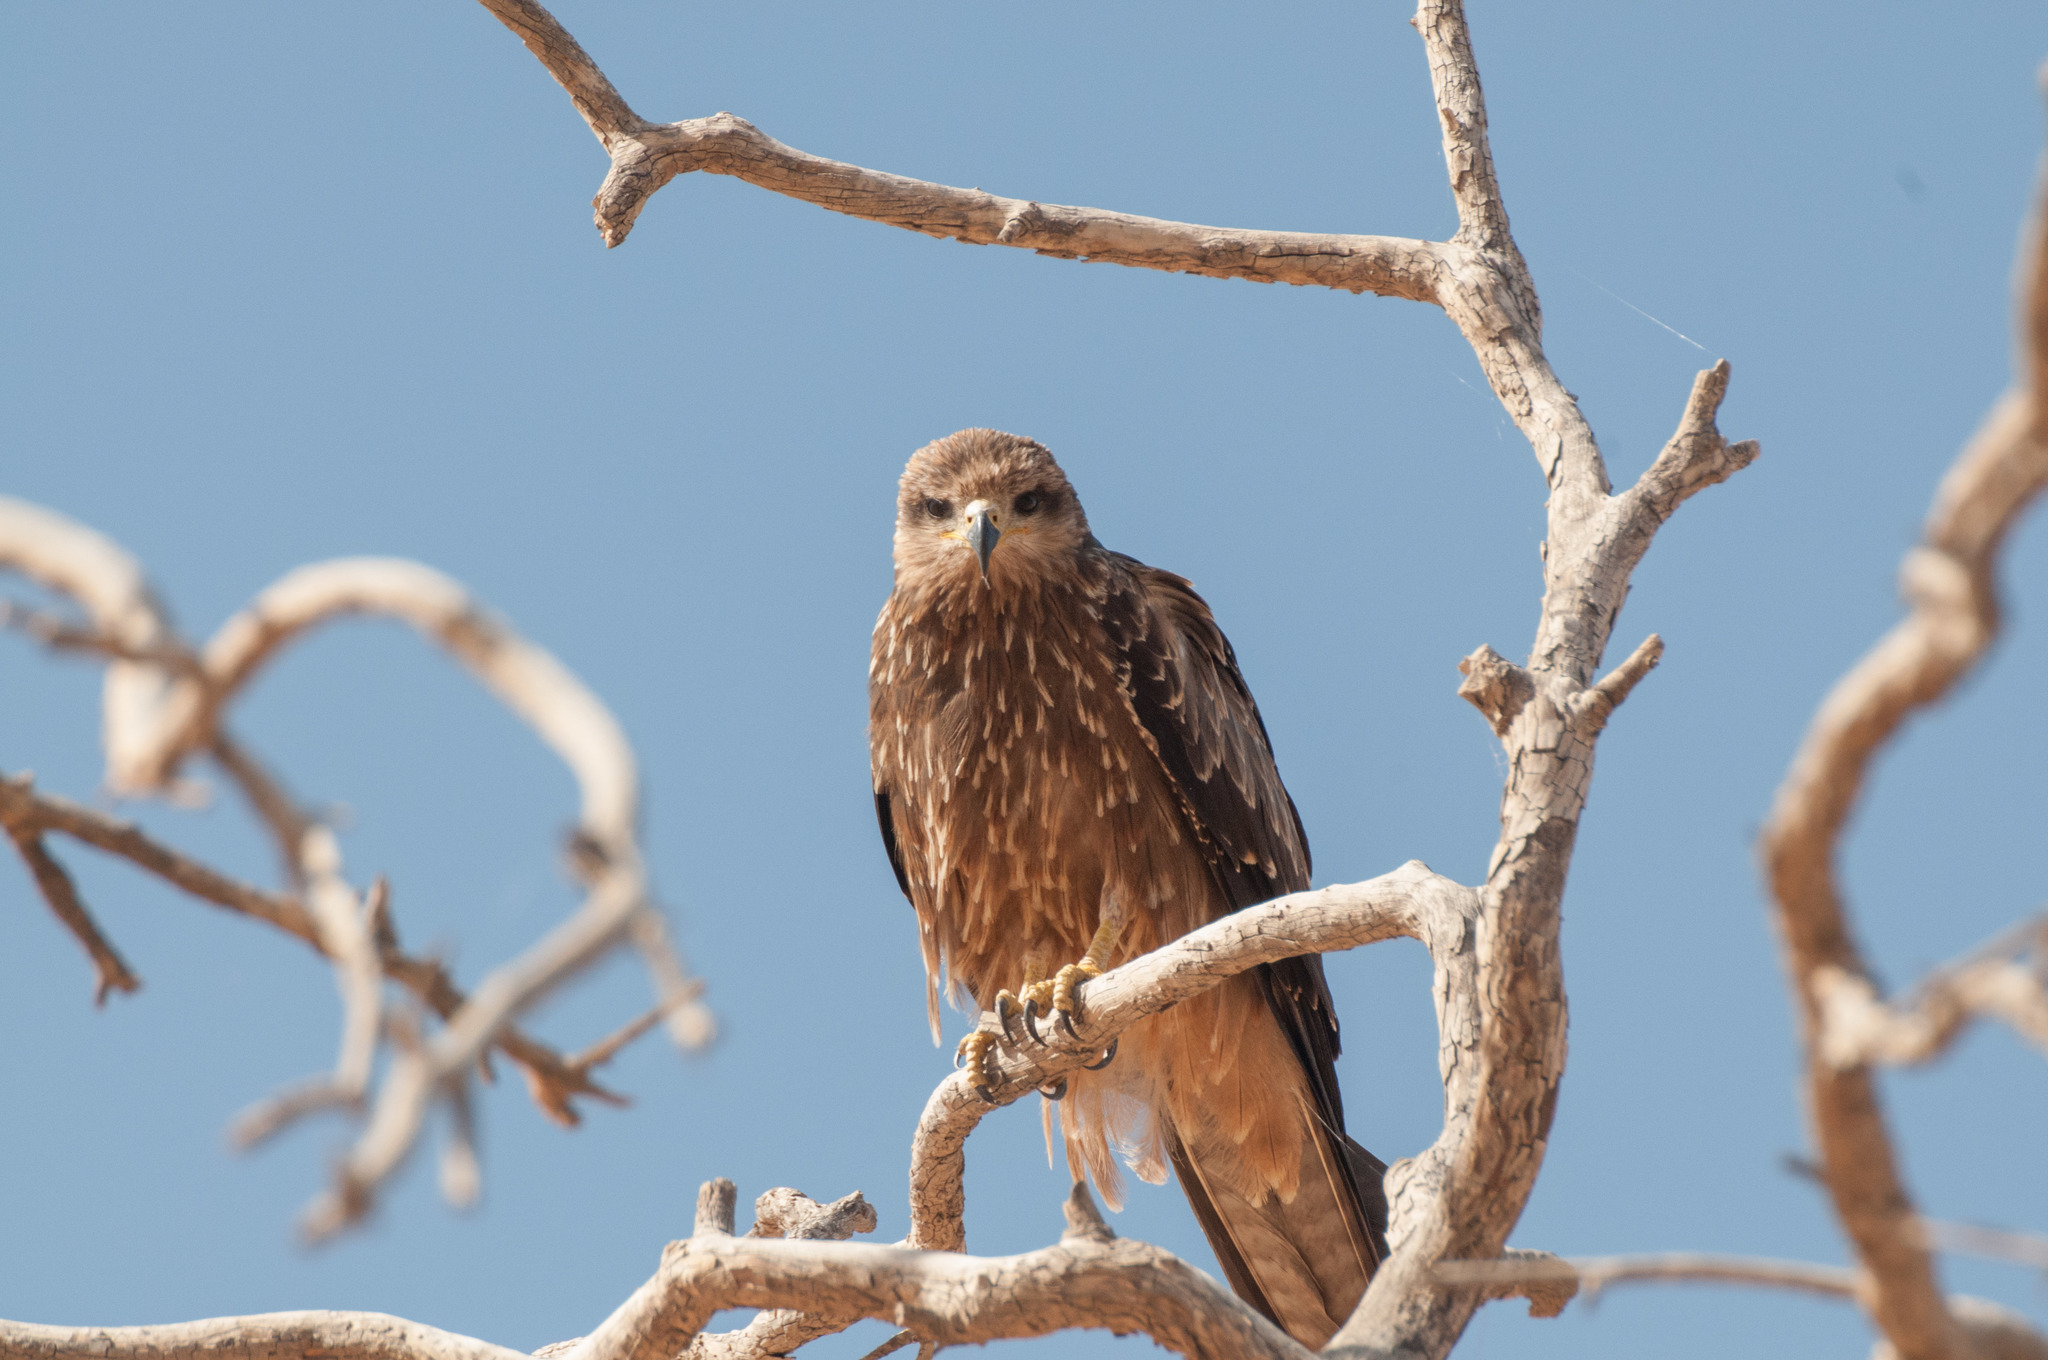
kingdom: Animalia
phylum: Chordata
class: Aves
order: Accipitriformes
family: Accipitridae
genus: Milvus
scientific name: Milvus migrans
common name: Black kite
